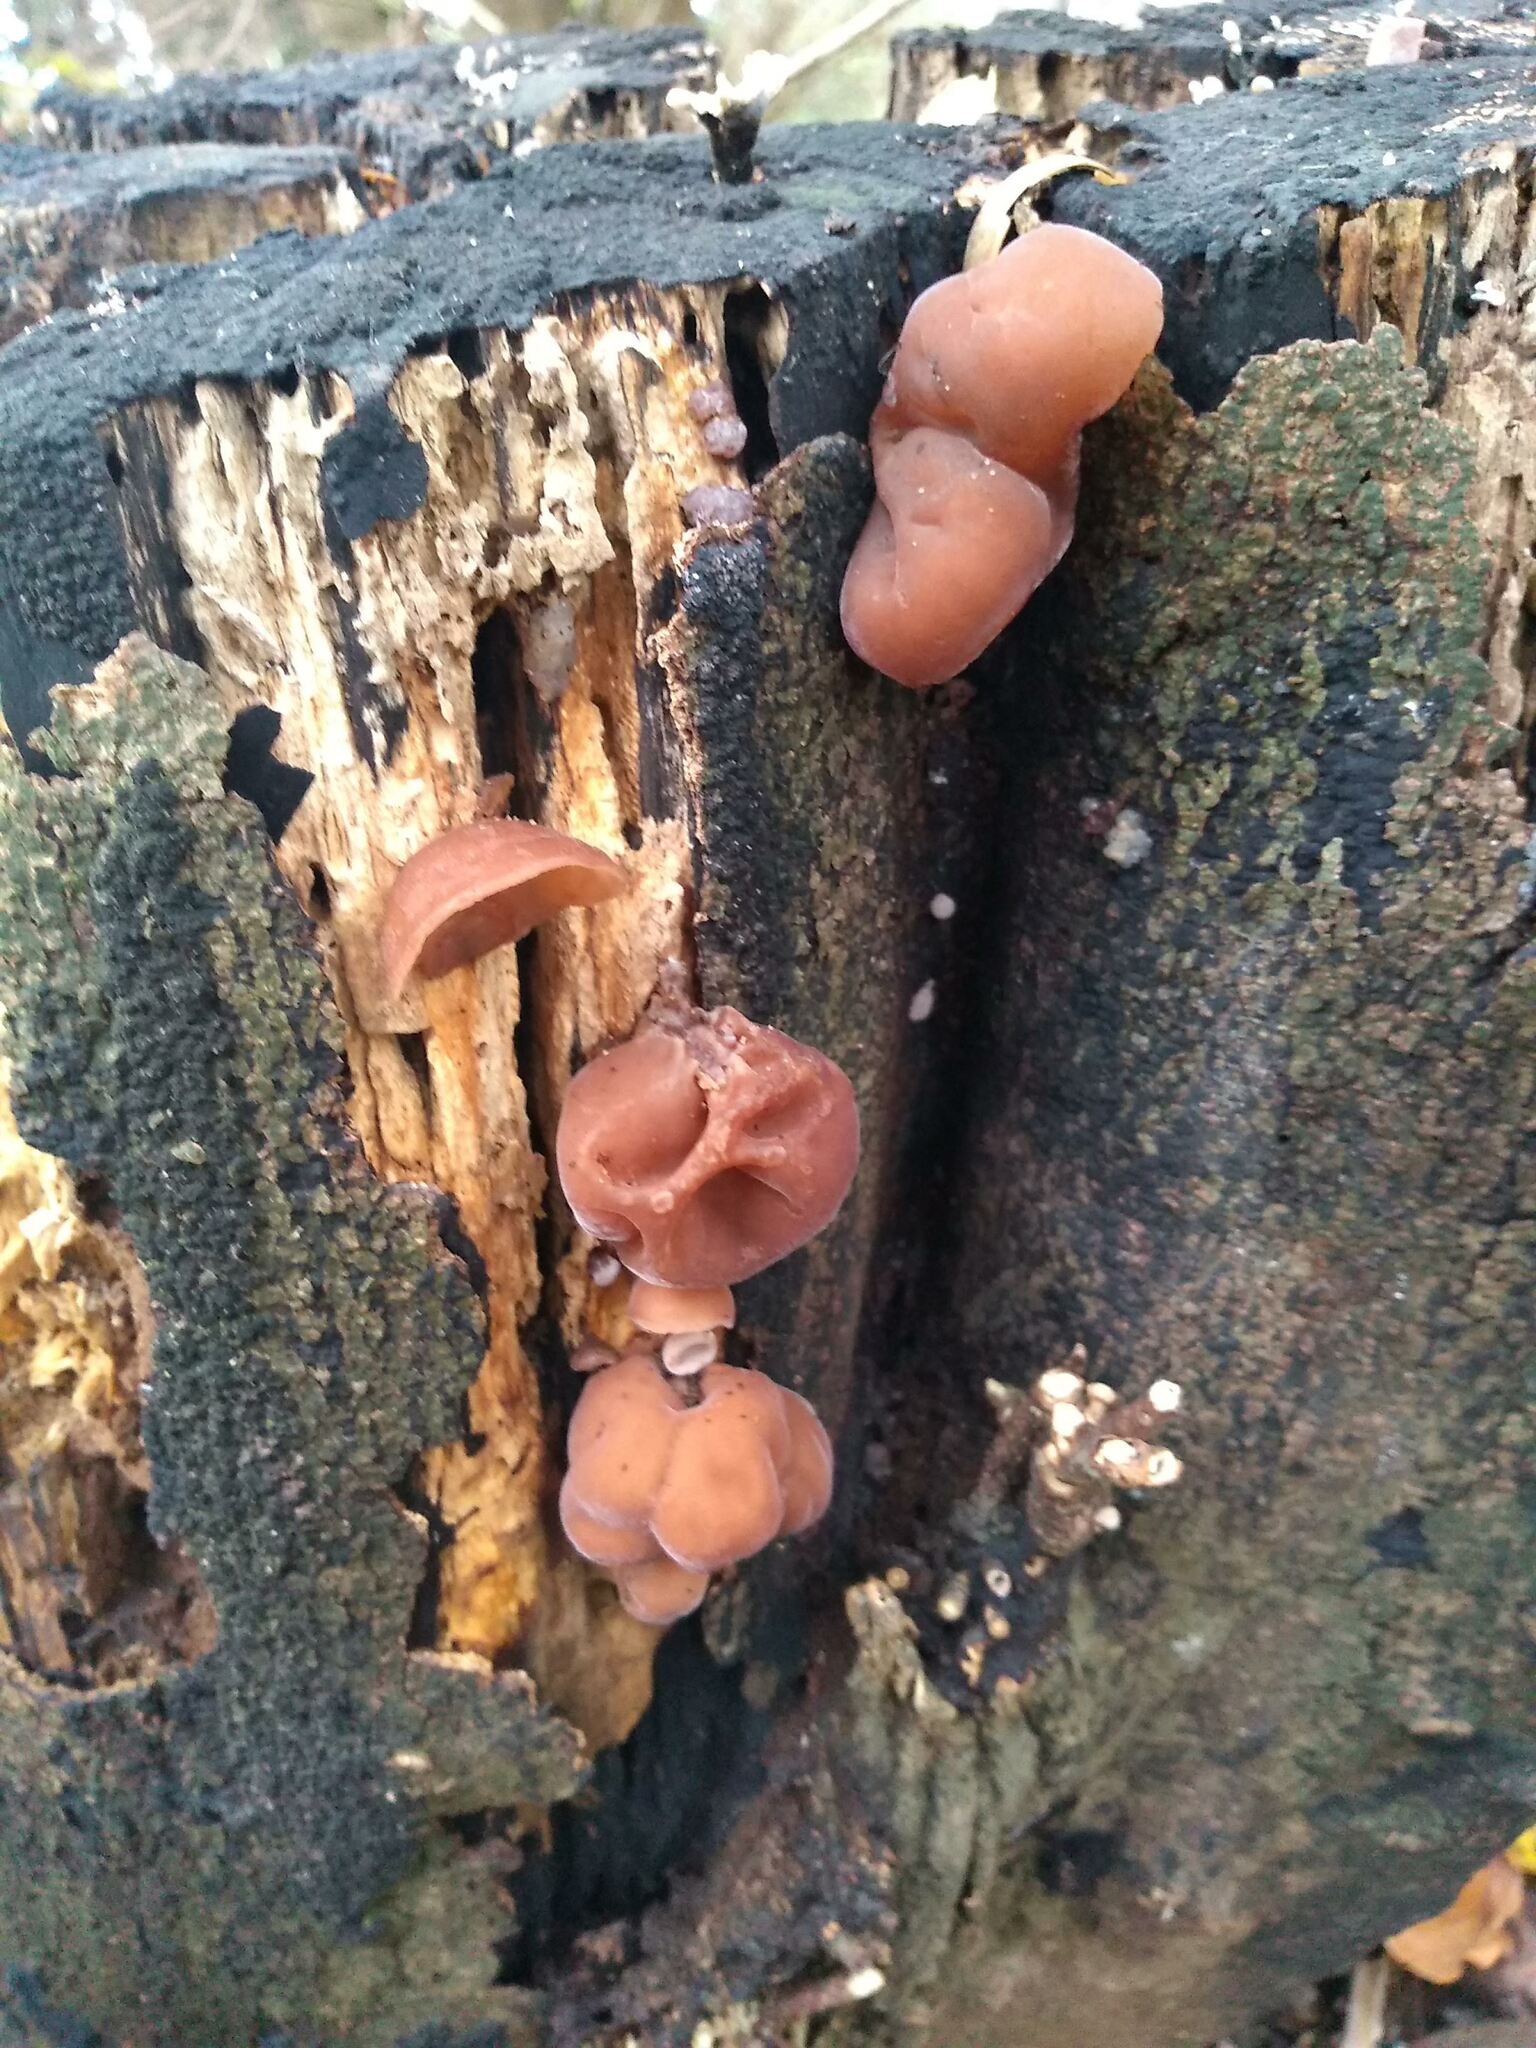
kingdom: Fungi
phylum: Basidiomycota
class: Agaricomycetes
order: Auriculariales
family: Auriculariaceae
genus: Auricularia
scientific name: Auricularia auricula-judae
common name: Jelly ear
